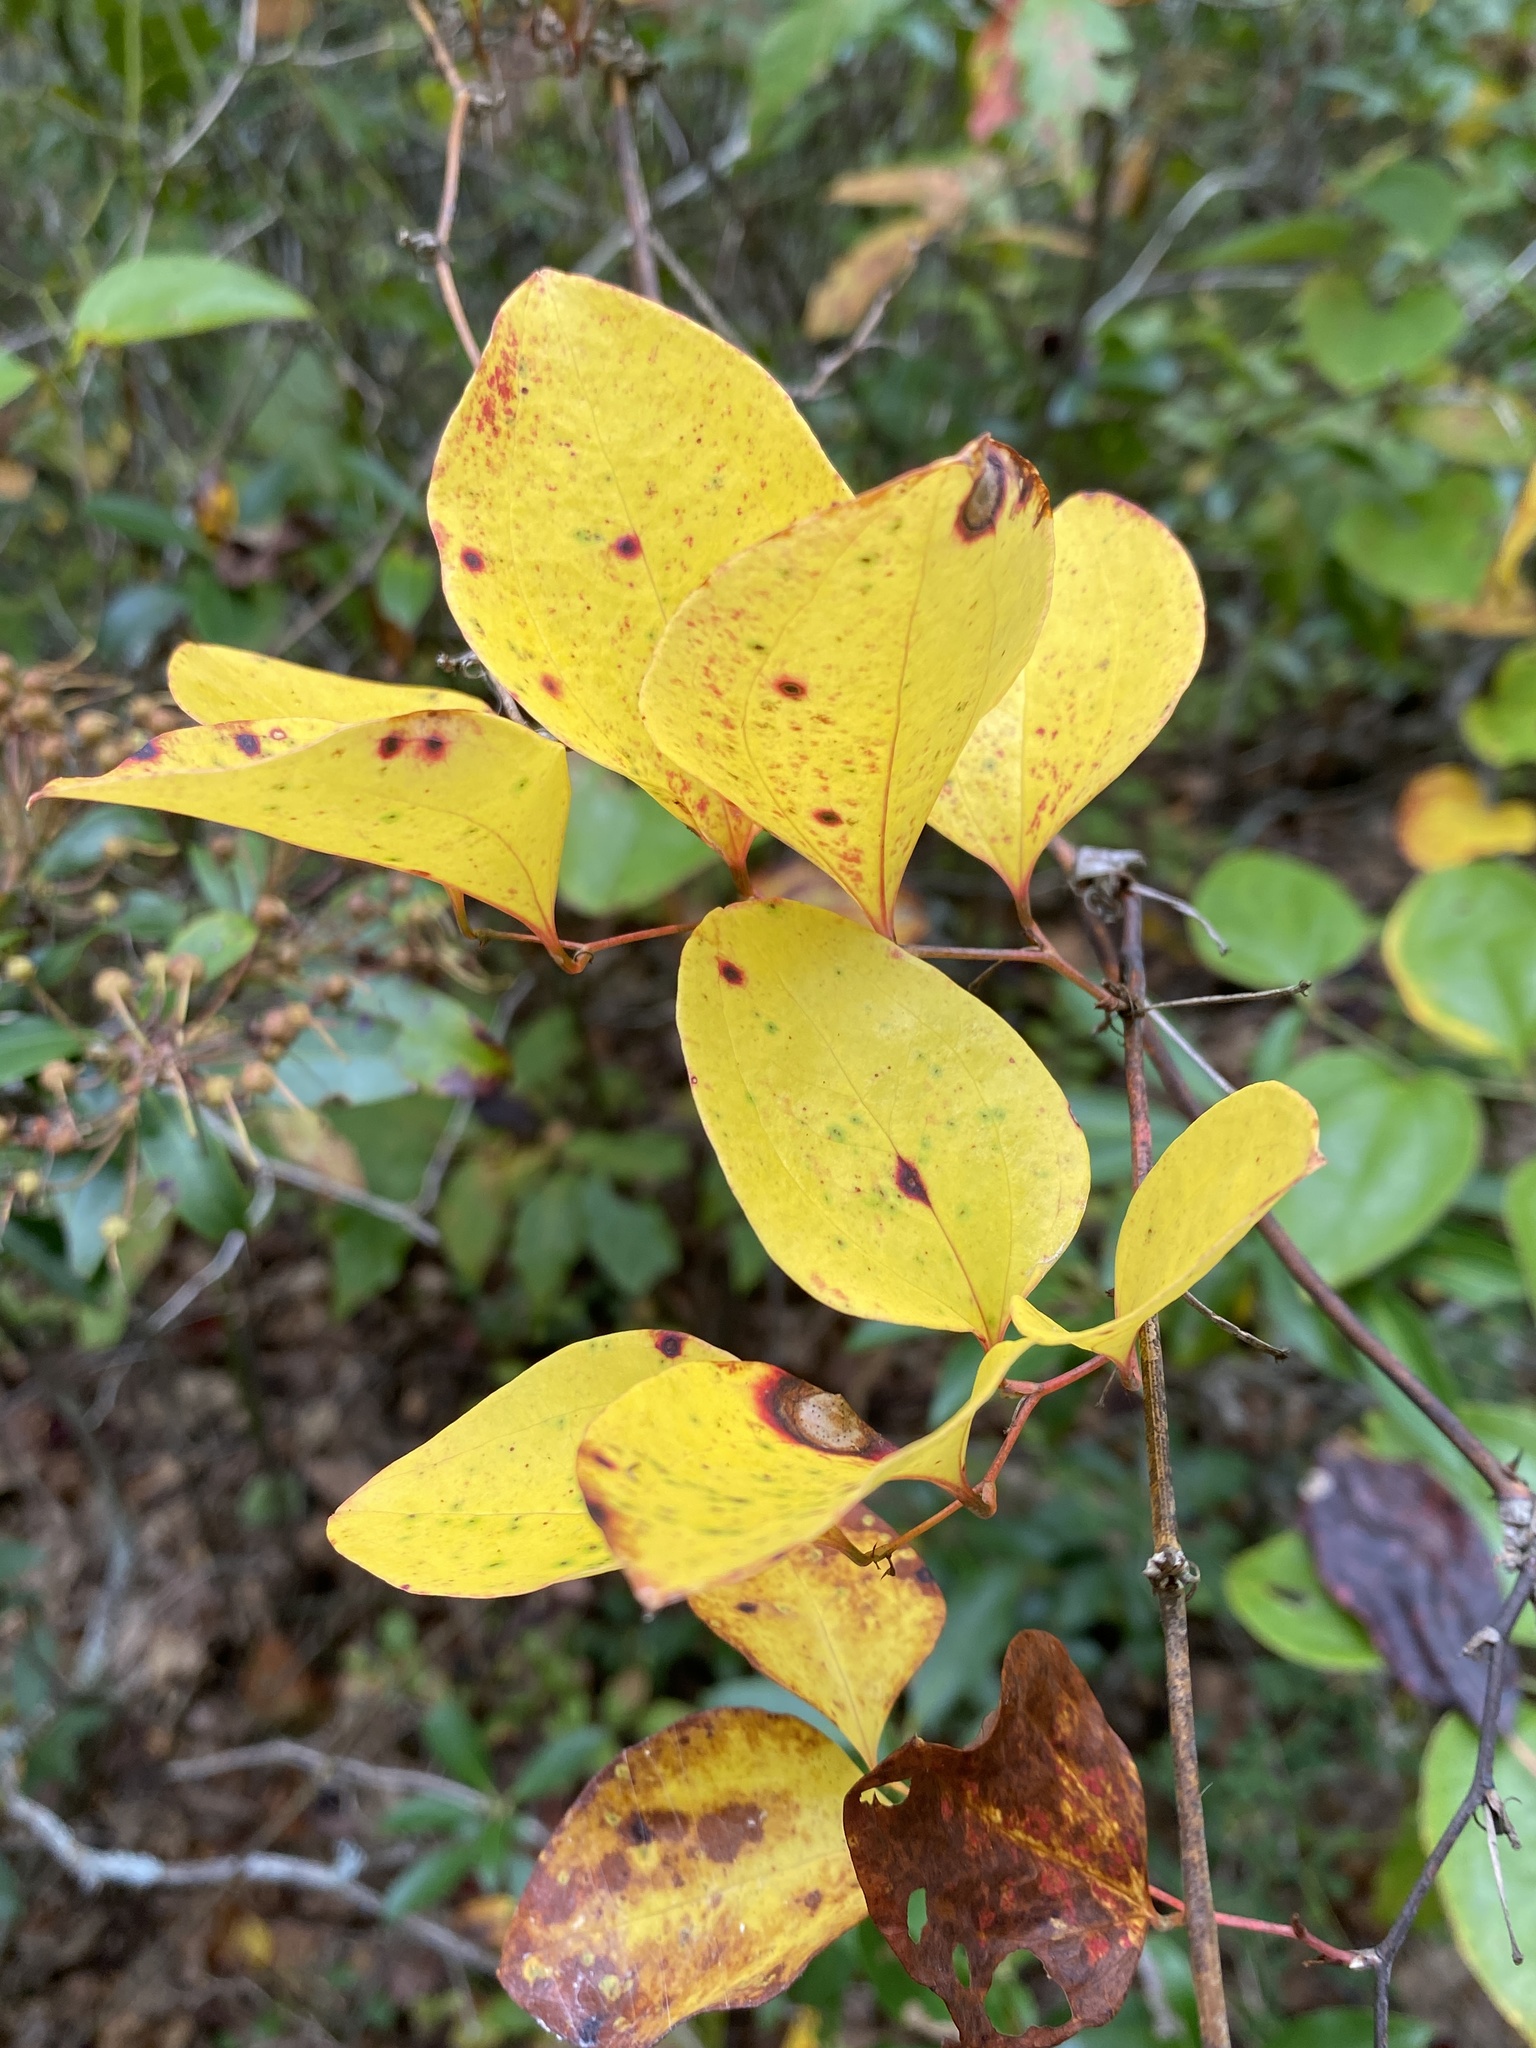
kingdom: Plantae
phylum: Tracheophyta
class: Liliopsida
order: Liliales
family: Smilacaceae
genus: Smilax
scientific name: Smilax rotundifolia
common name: Bullbriar
